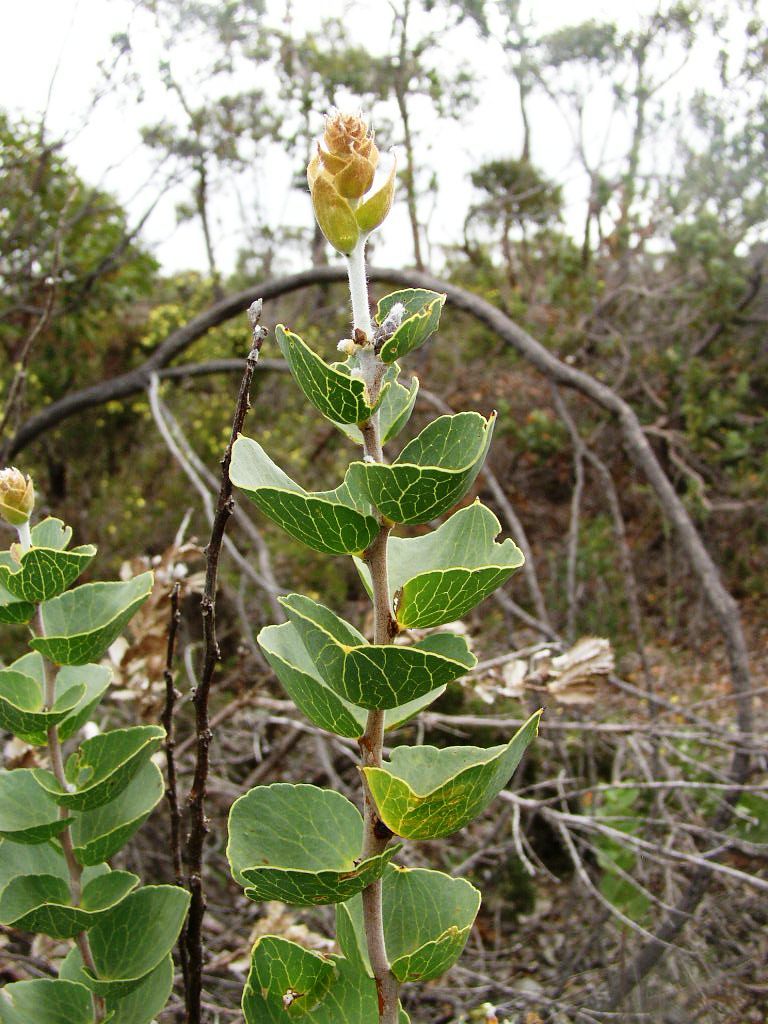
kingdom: Plantae
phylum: Tracheophyta
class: Magnoliopsida
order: Proteales
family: Proteaceae
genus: Hakea
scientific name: Hakea cucullata
